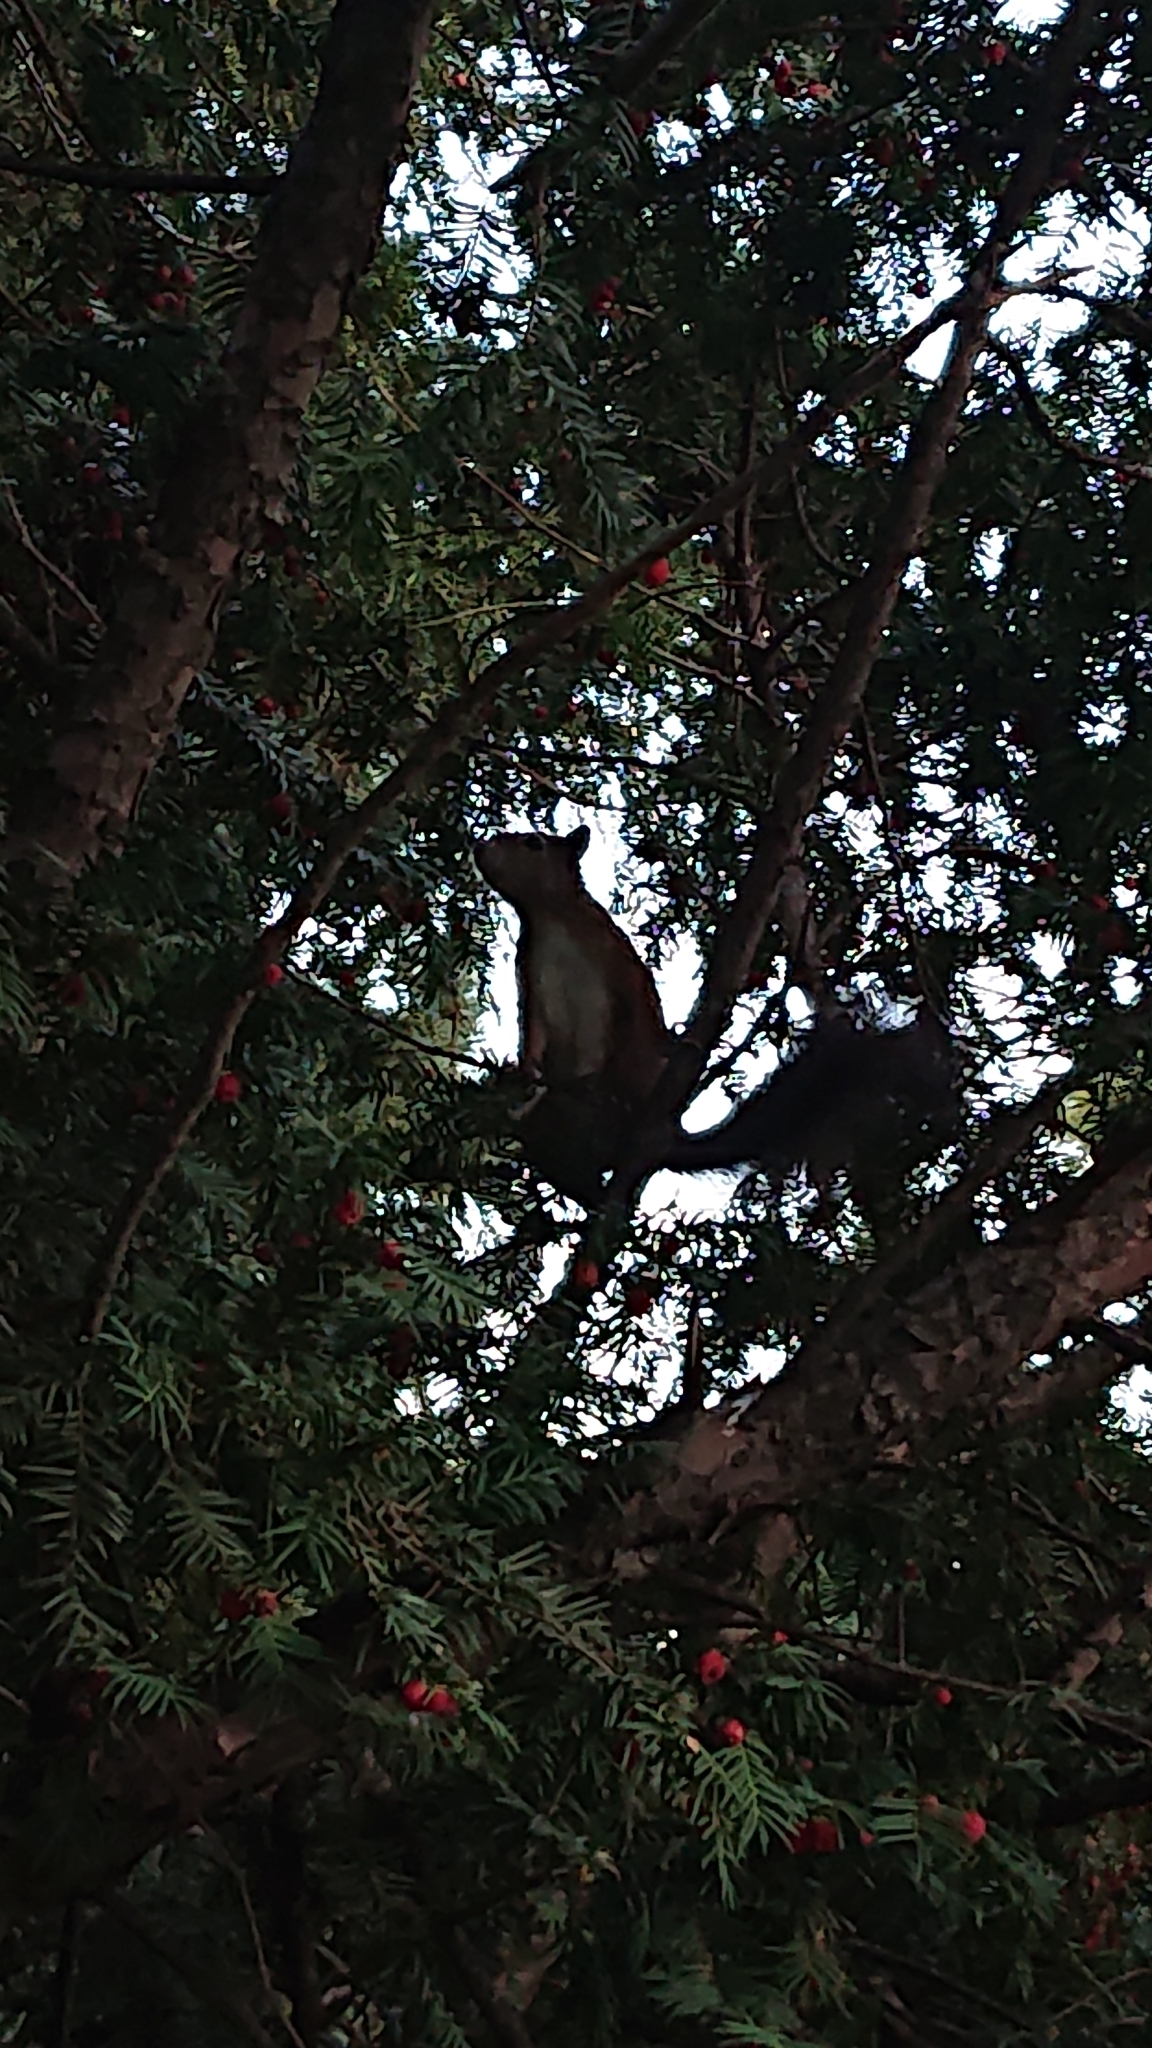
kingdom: Animalia
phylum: Chordata
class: Mammalia
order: Rodentia
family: Sciuridae
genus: Sciurus
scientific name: Sciurus vulgaris
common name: Eurasian red squirrel
